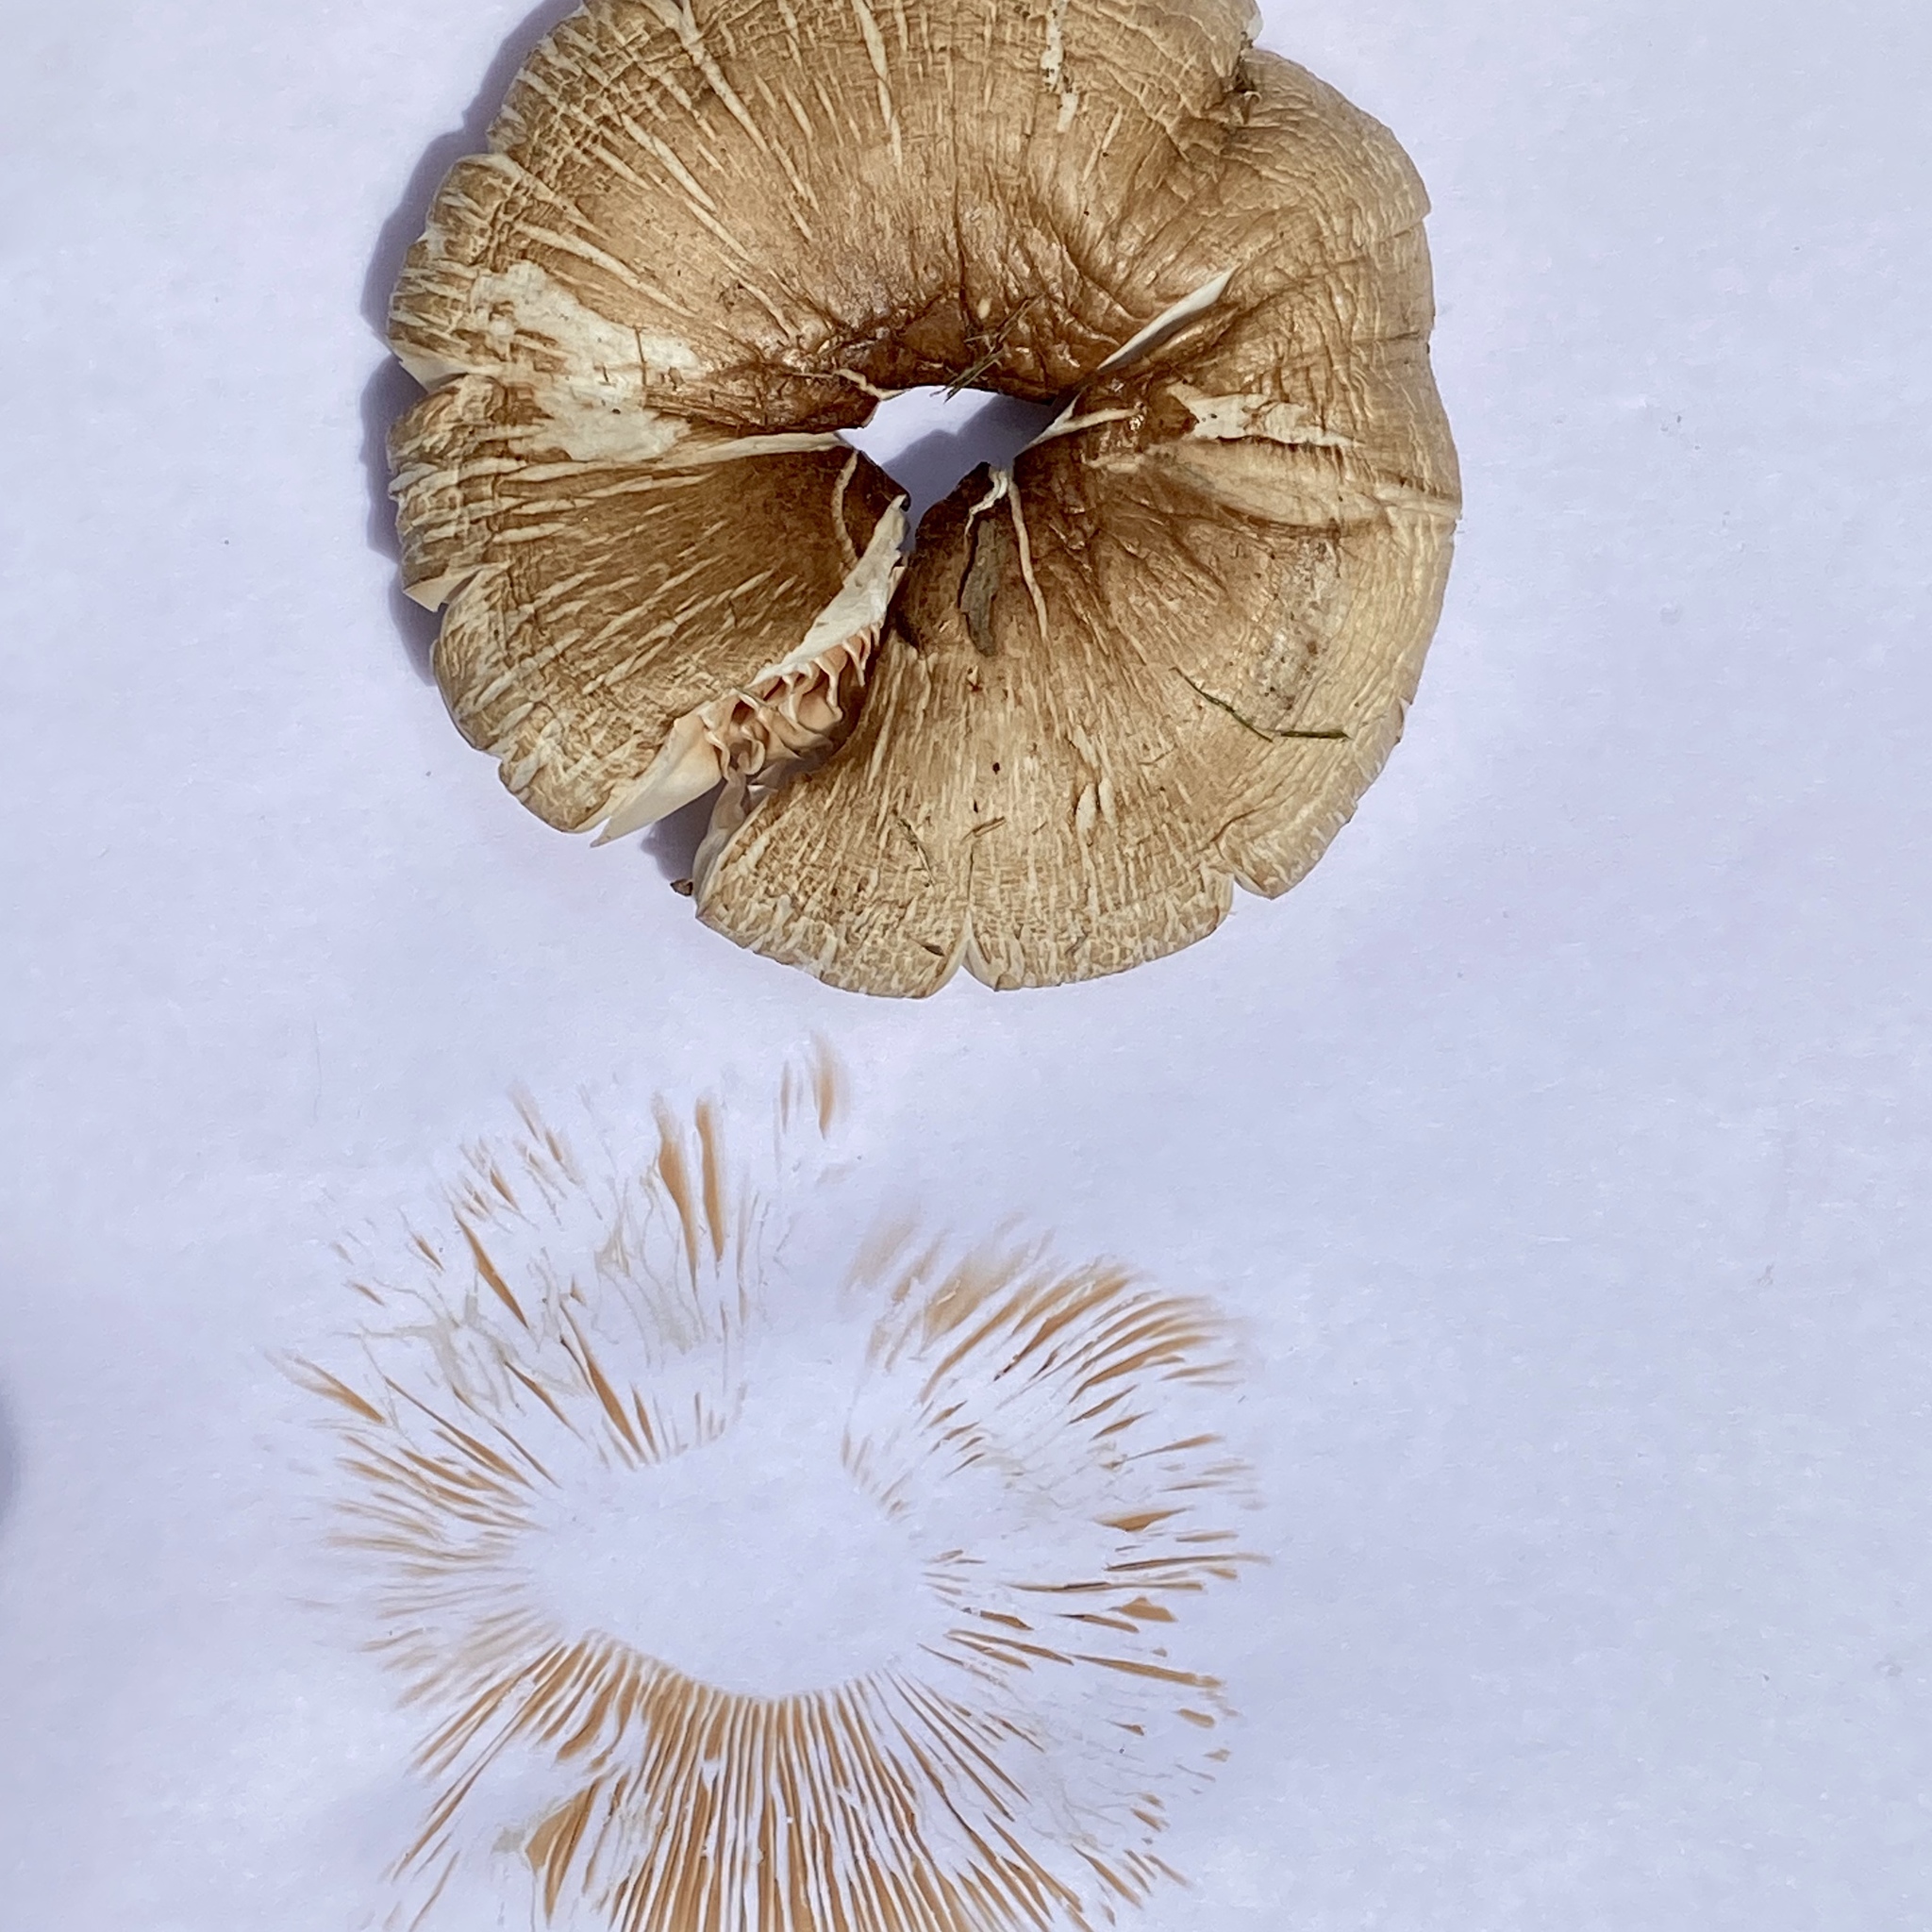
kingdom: Fungi
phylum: Basidiomycota
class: Agaricomycetes
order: Agaricales
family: Pluteaceae
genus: Pluteus
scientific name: Pluteus petasatus
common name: Scaly shield
